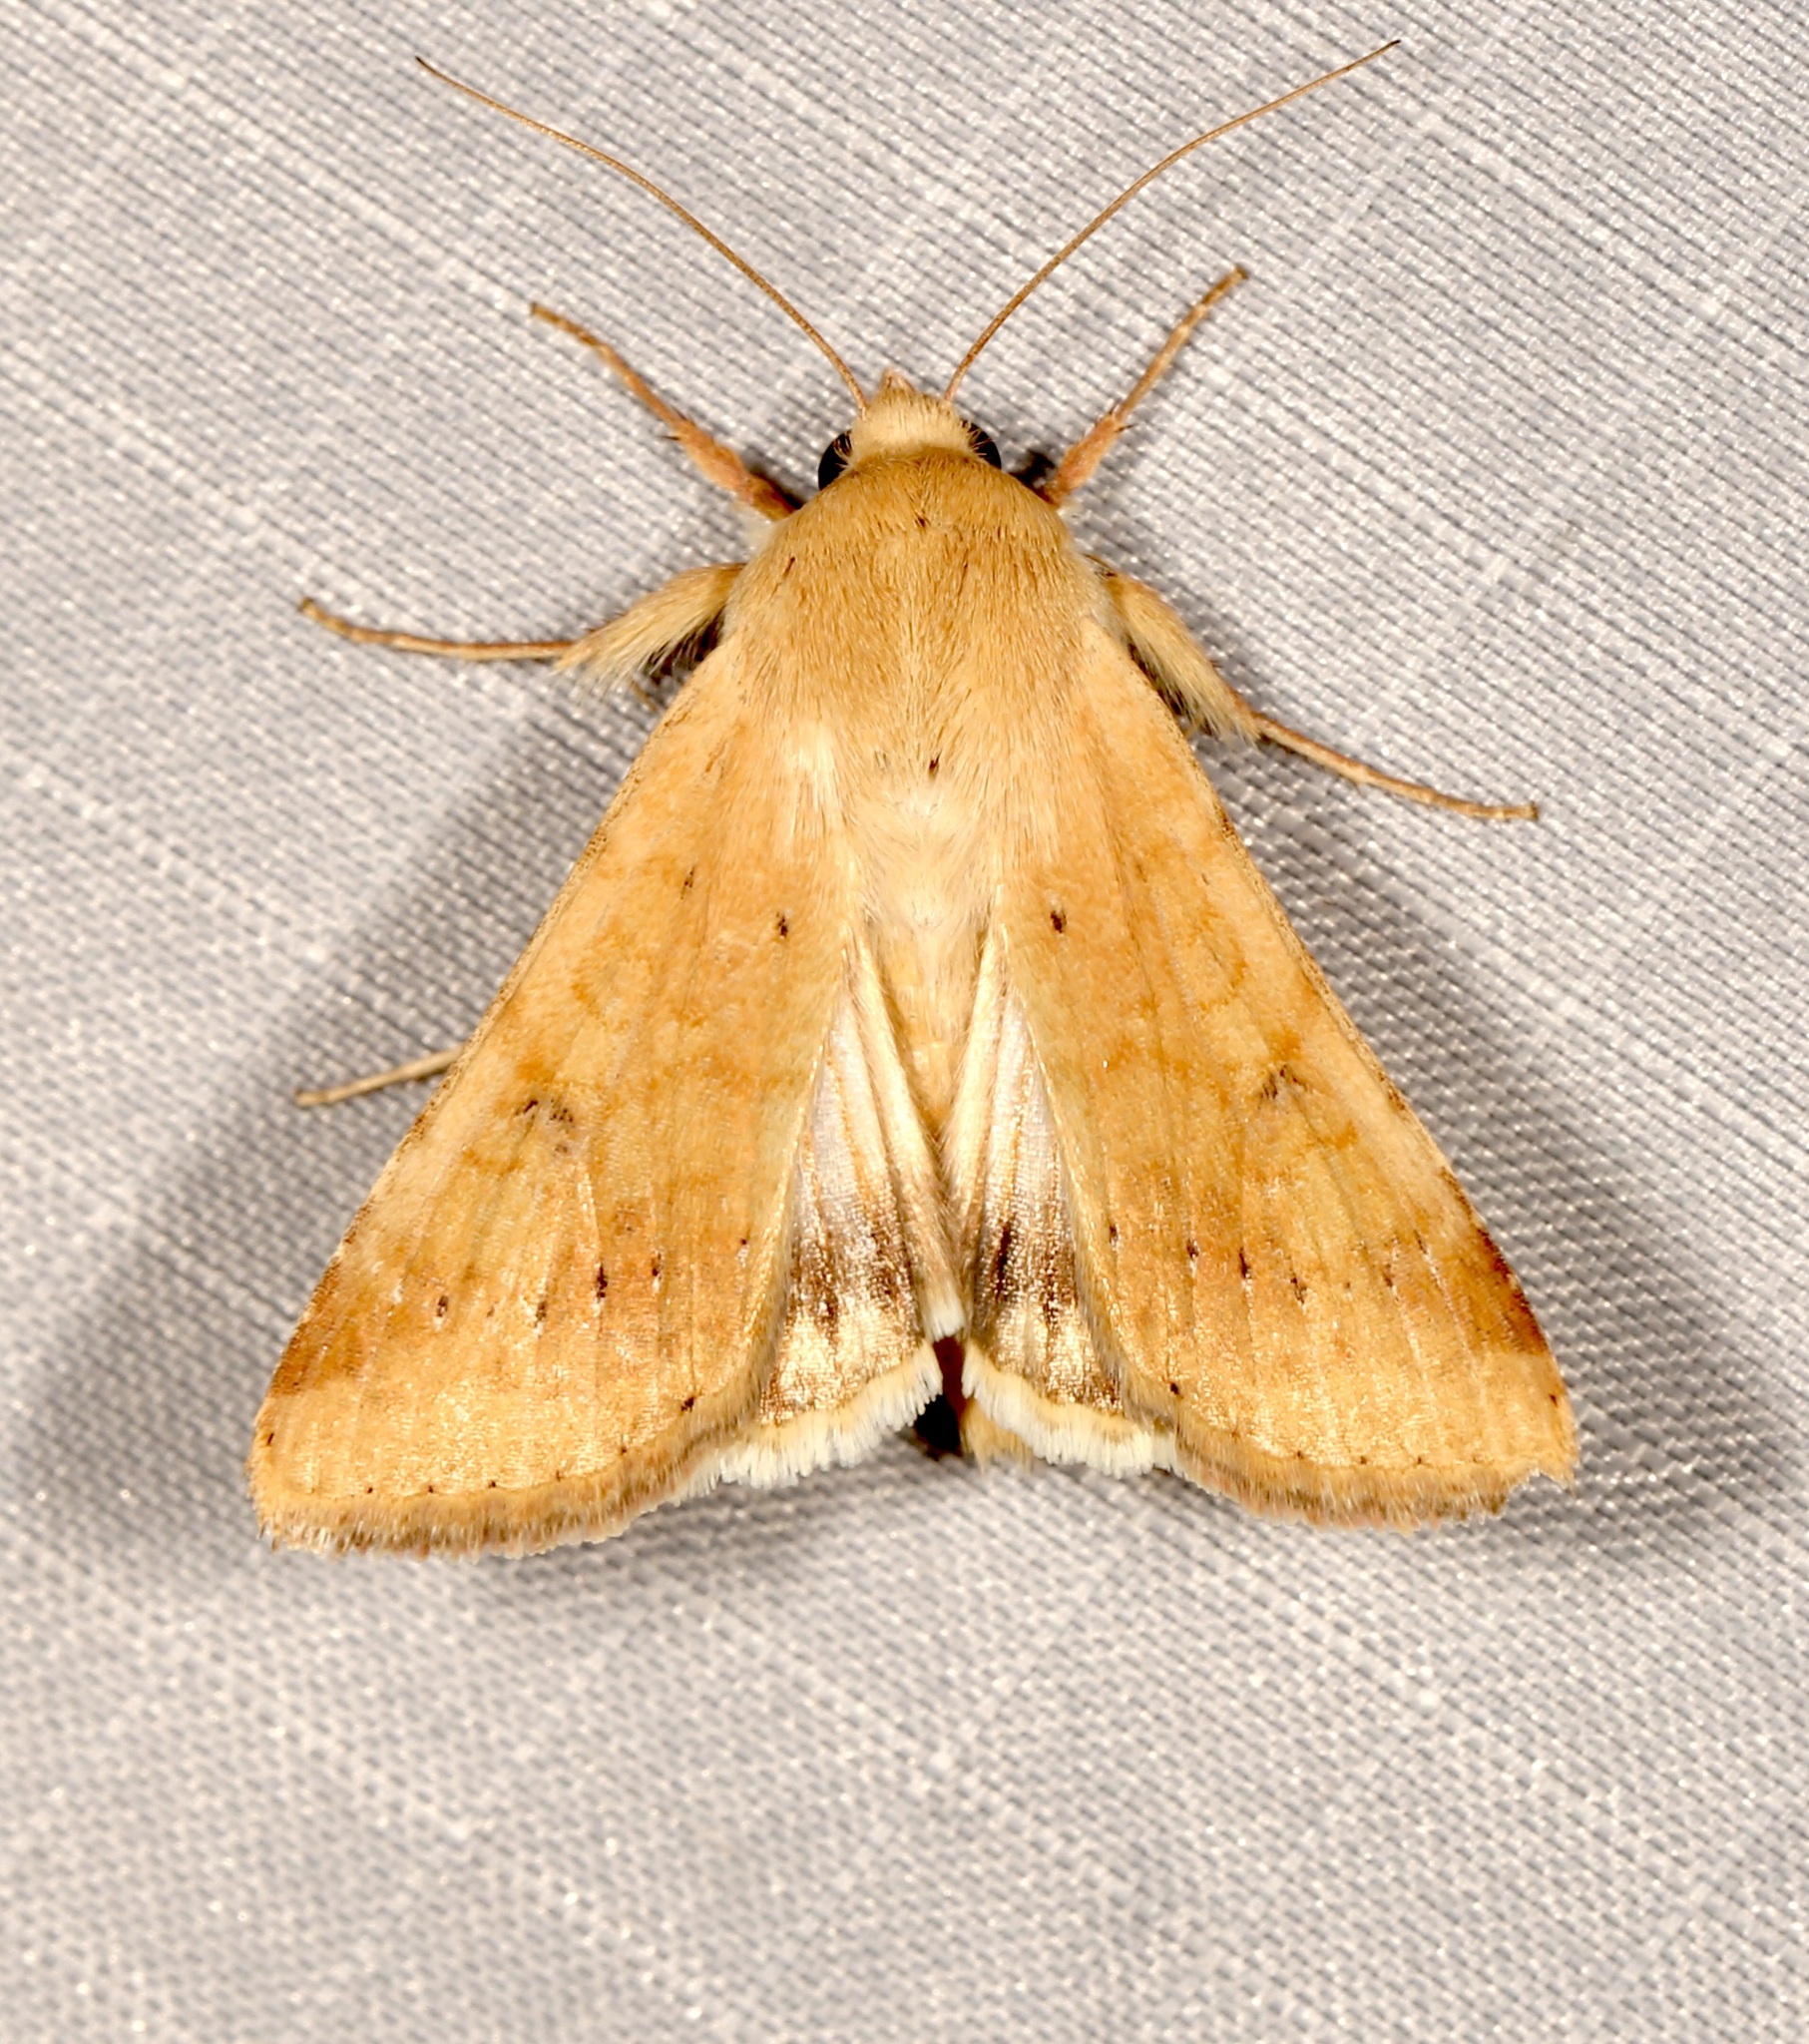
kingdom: Animalia
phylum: Arthropoda
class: Insecta
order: Lepidoptera
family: Noctuidae
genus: Helicoverpa
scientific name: Helicoverpa zea
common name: Bollworm
